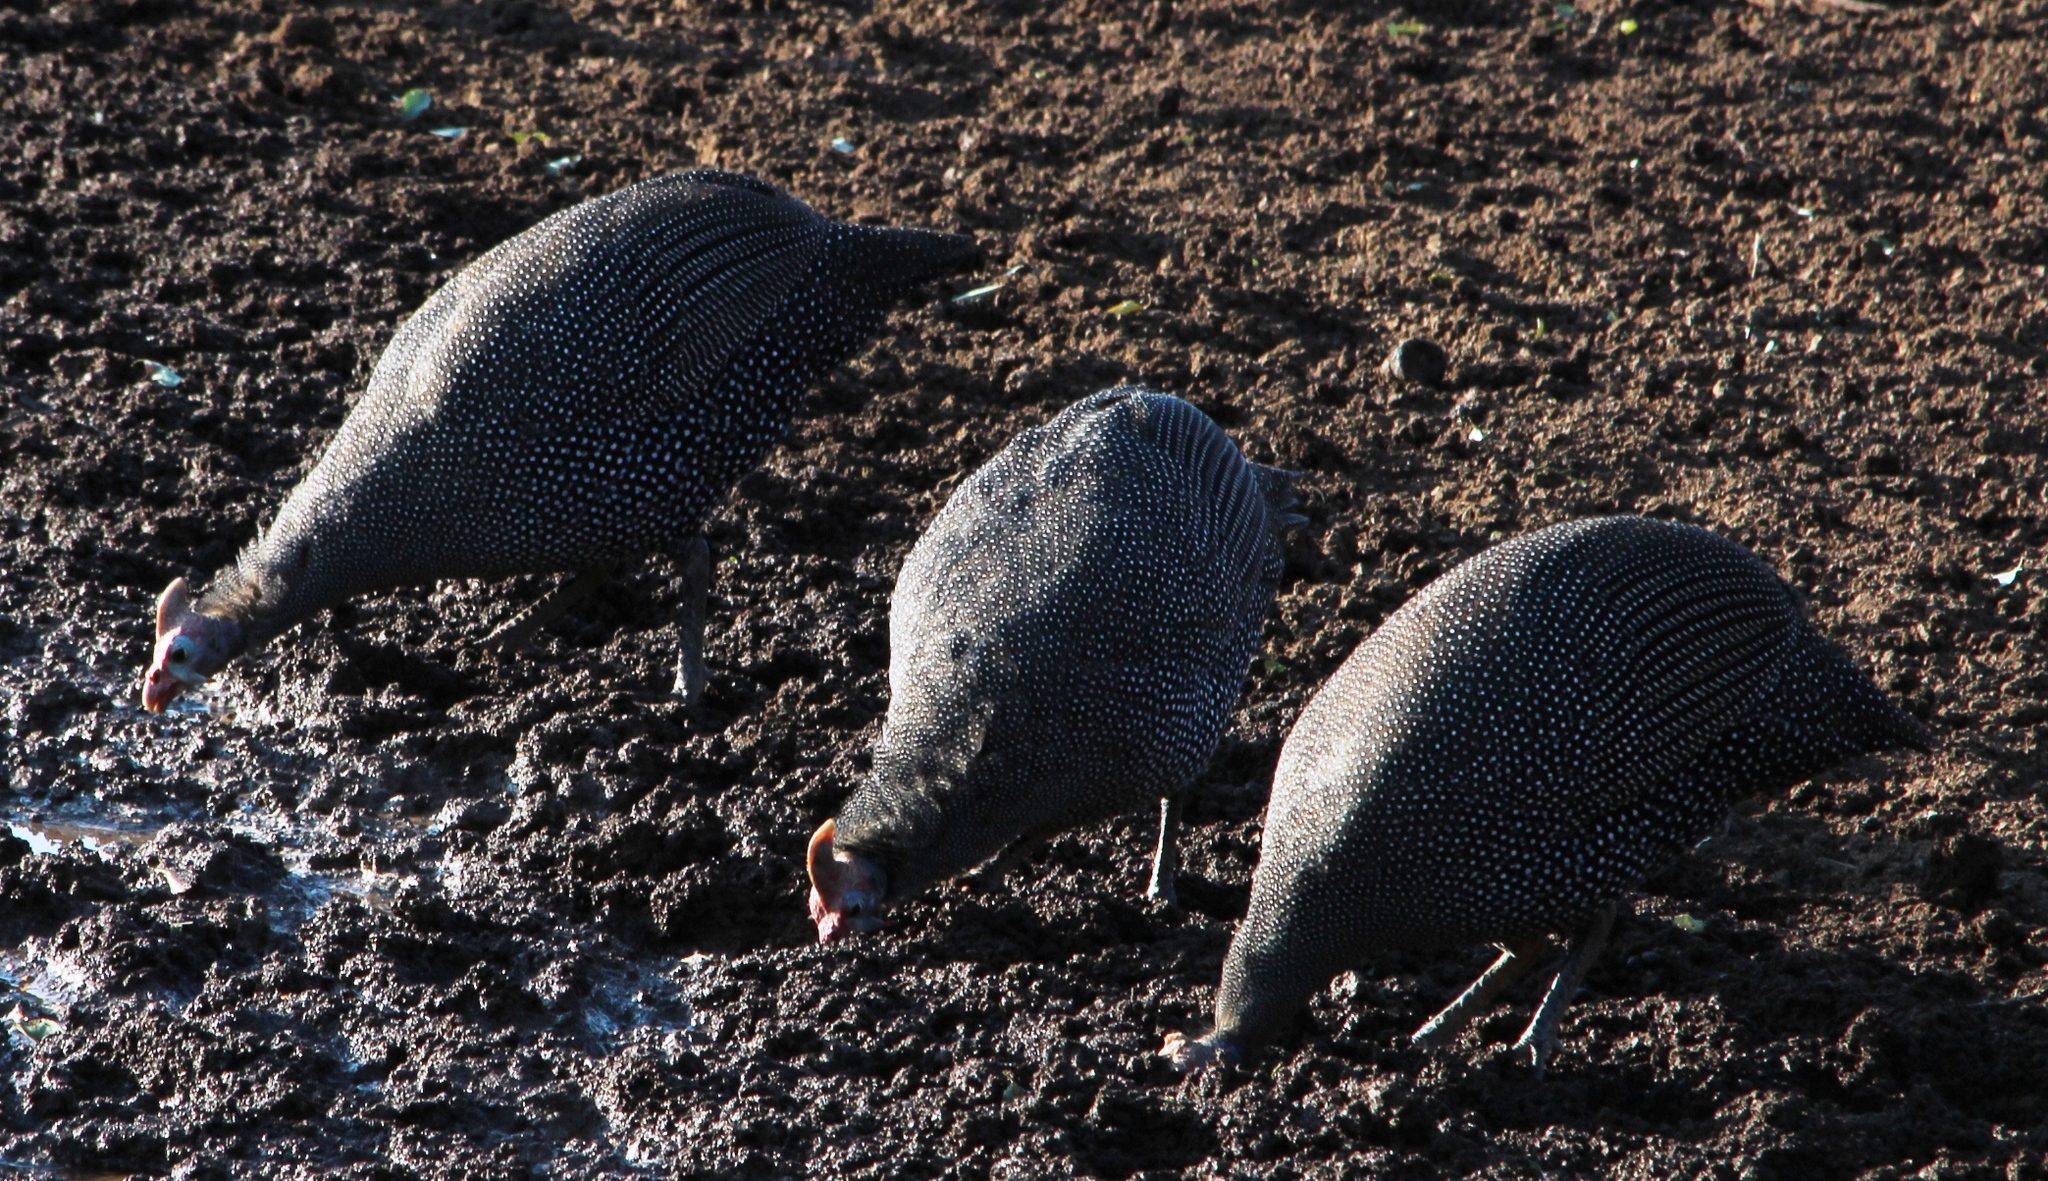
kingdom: Animalia
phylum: Chordata
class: Aves
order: Galliformes
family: Numididae
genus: Numida
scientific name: Numida meleagris
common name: Helmeted guineafowl
